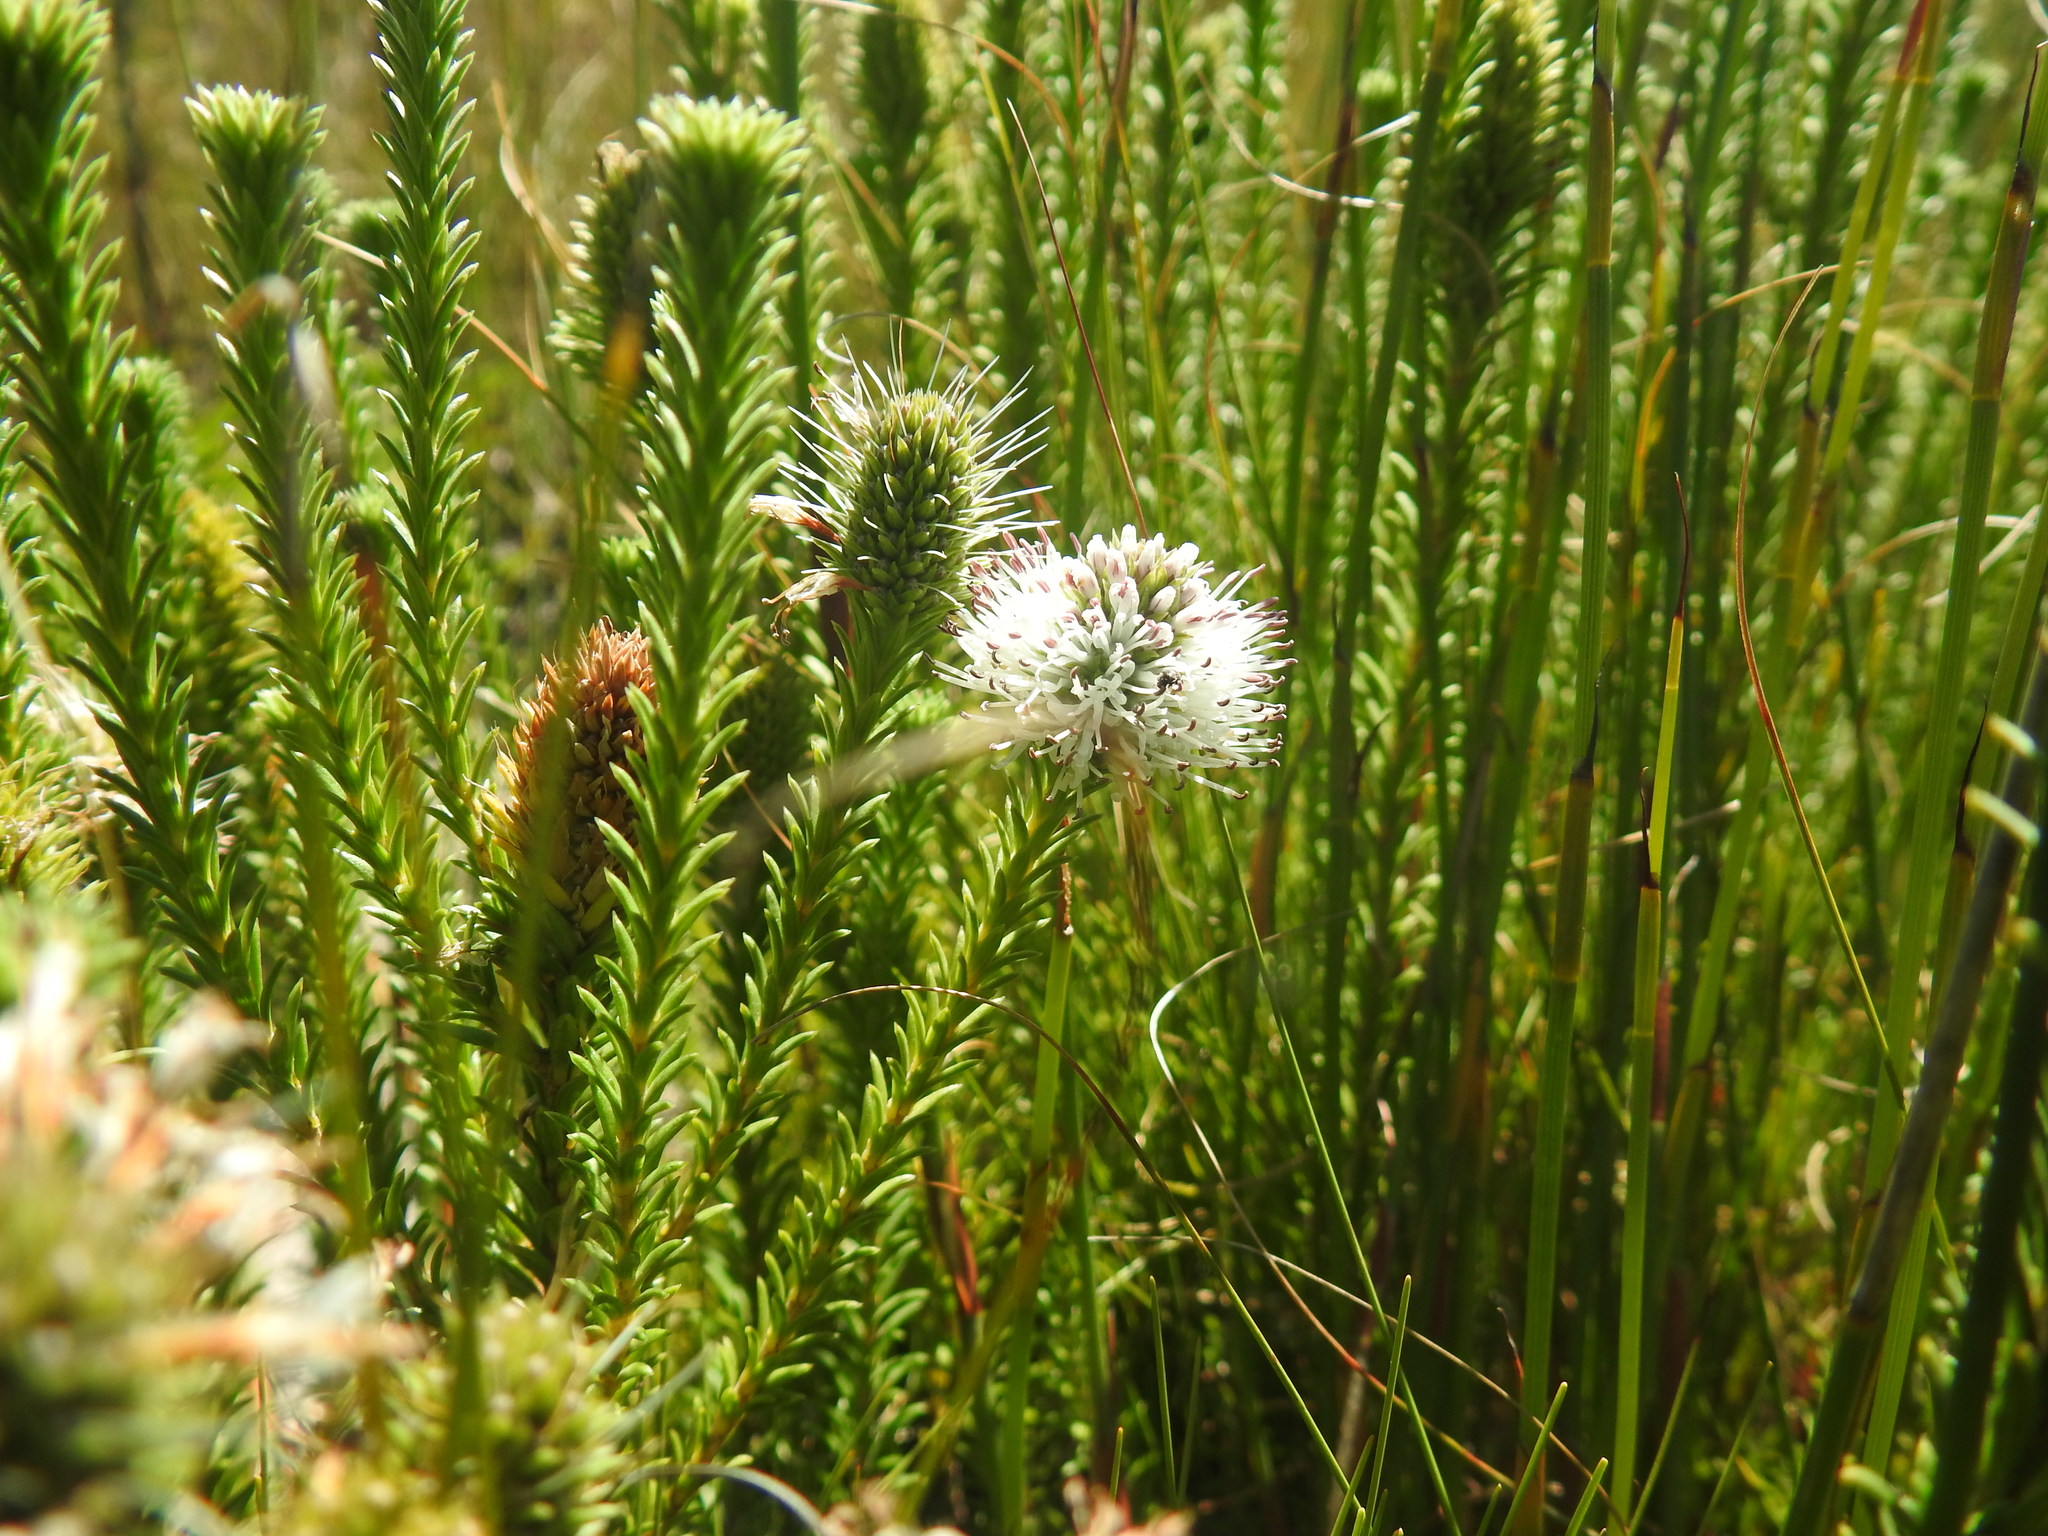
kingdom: Plantae
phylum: Tracheophyta
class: Magnoliopsida
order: Lamiales
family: Stilbaceae
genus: Stilbe
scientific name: Stilbe albiflora
